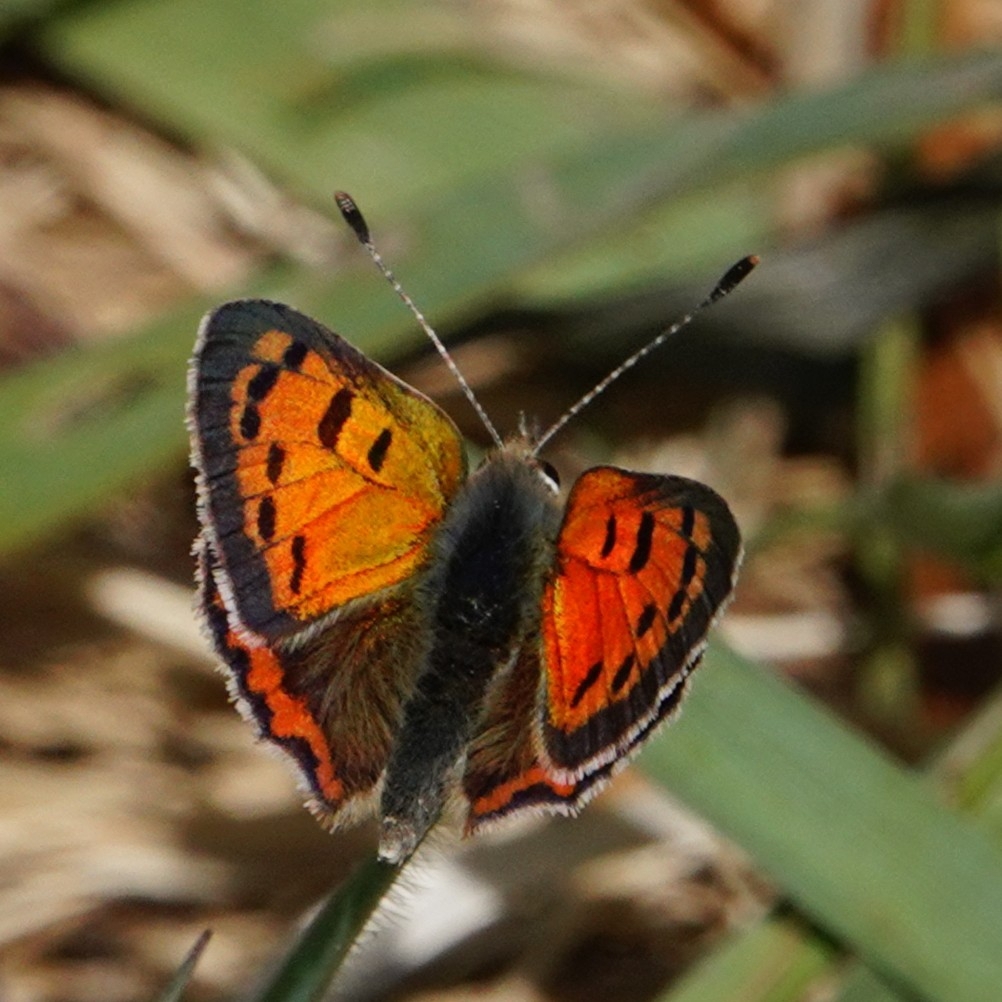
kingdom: Animalia
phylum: Arthropoda
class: Insecta
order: Lepidoptera
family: Lycaenidae
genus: Lycaena
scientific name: Lycaena phlaeas
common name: Small copper
